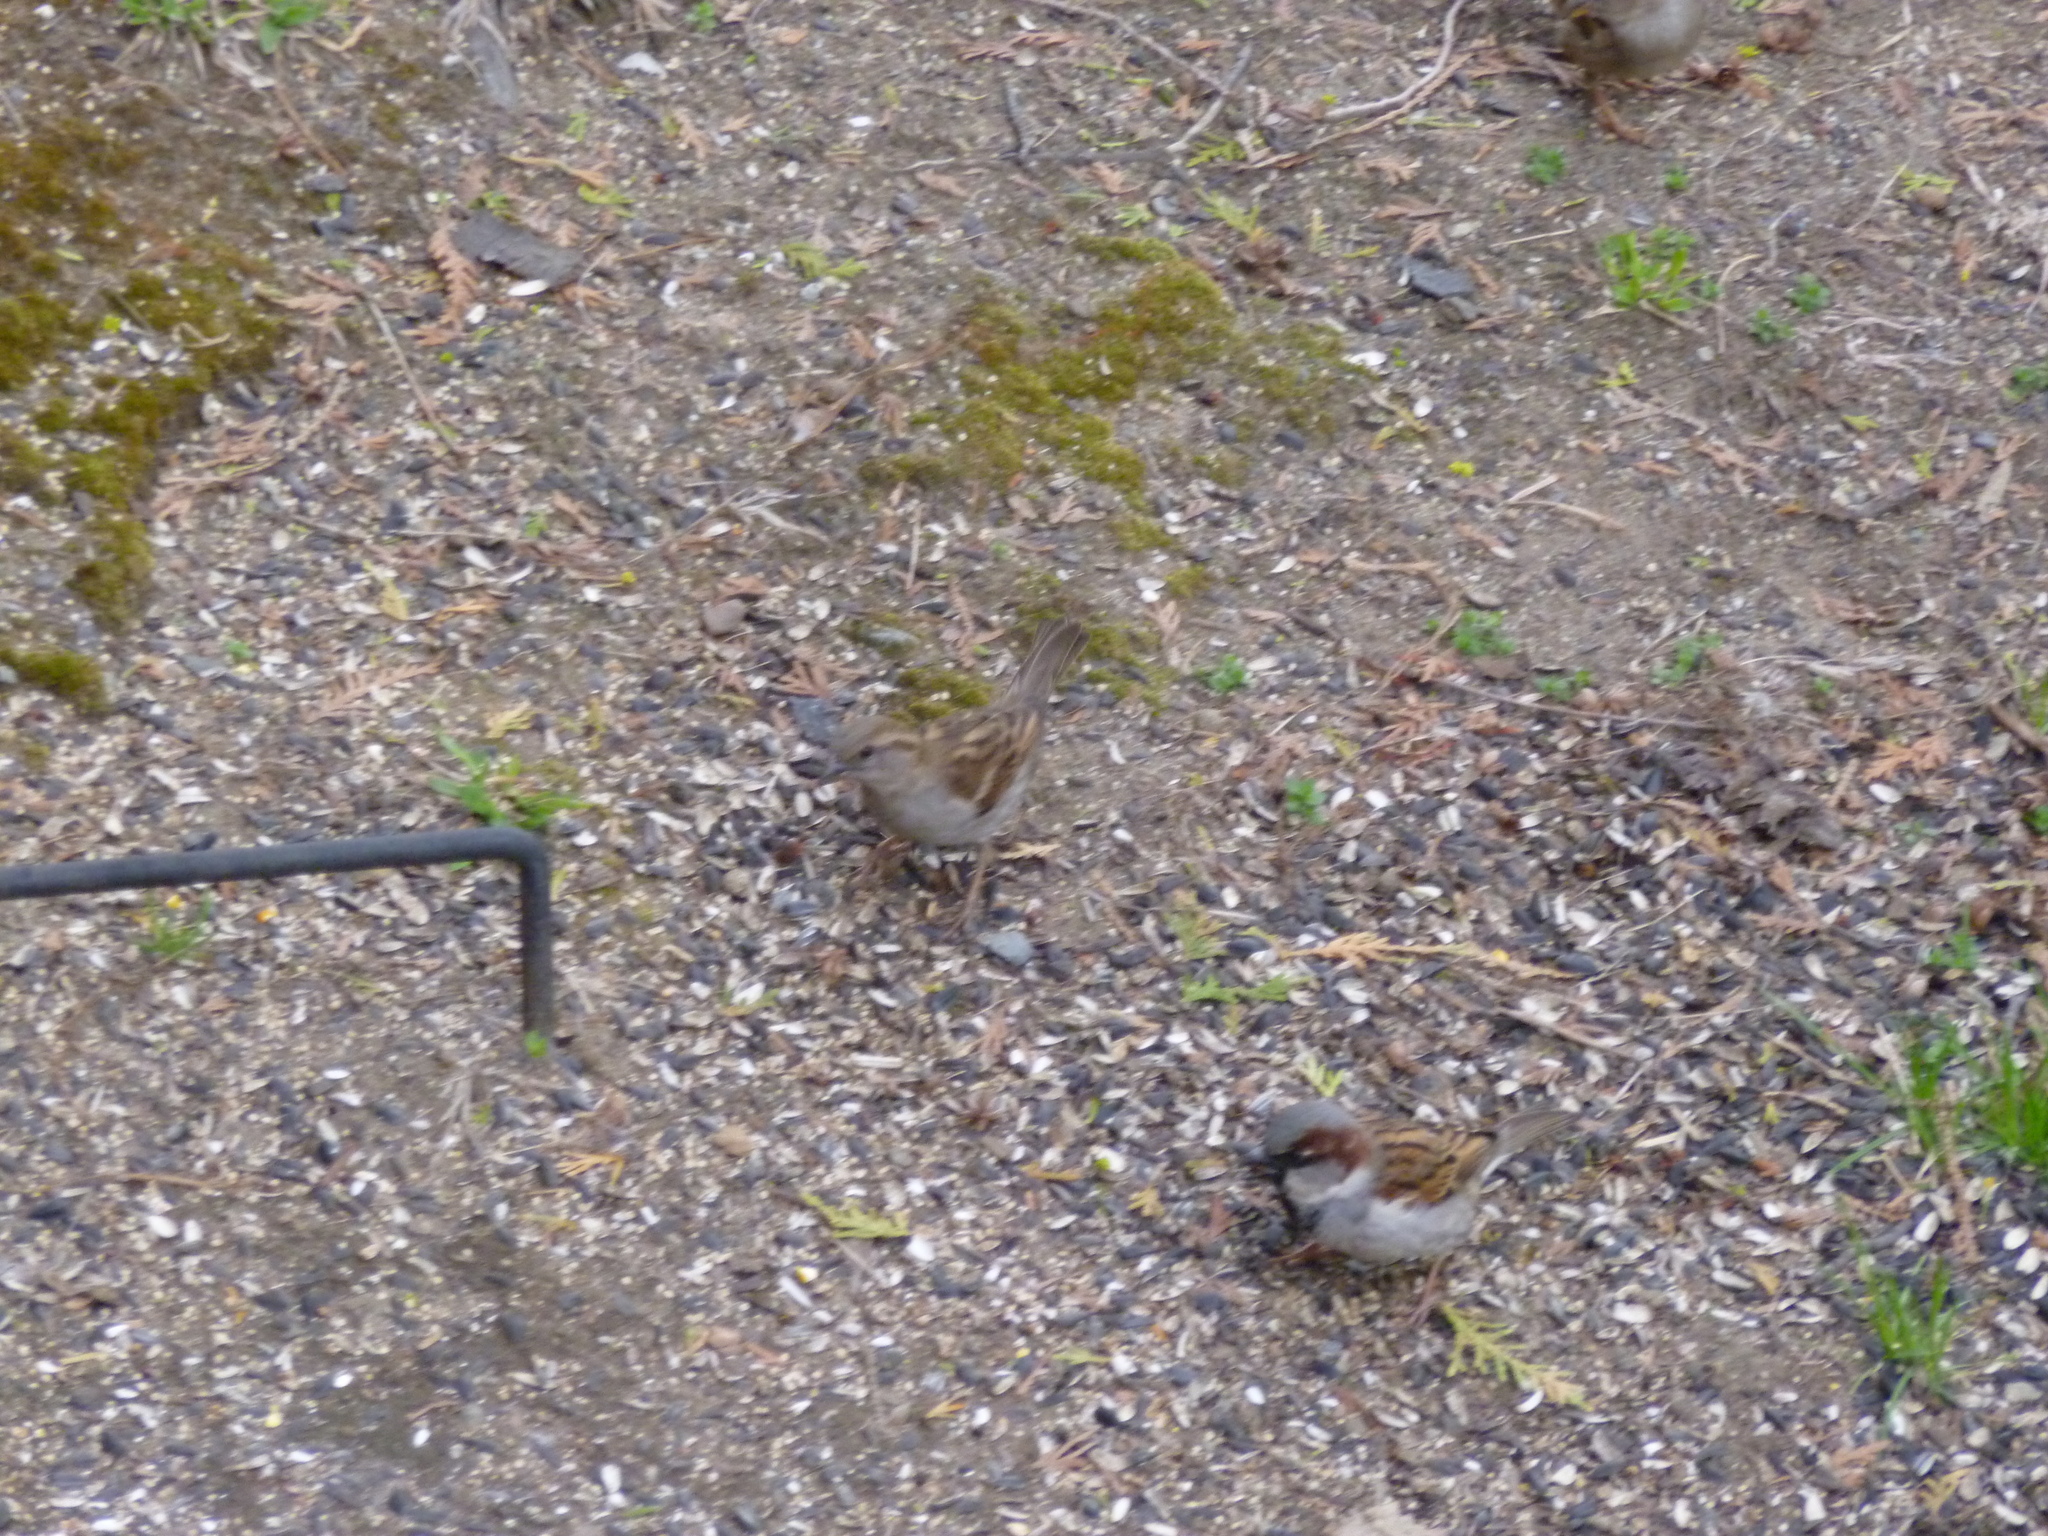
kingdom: Animalia
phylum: Chordata
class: Aves
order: Passeriformes
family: Passeridae
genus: Passer
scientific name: Passer domesticus
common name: House sparrow
